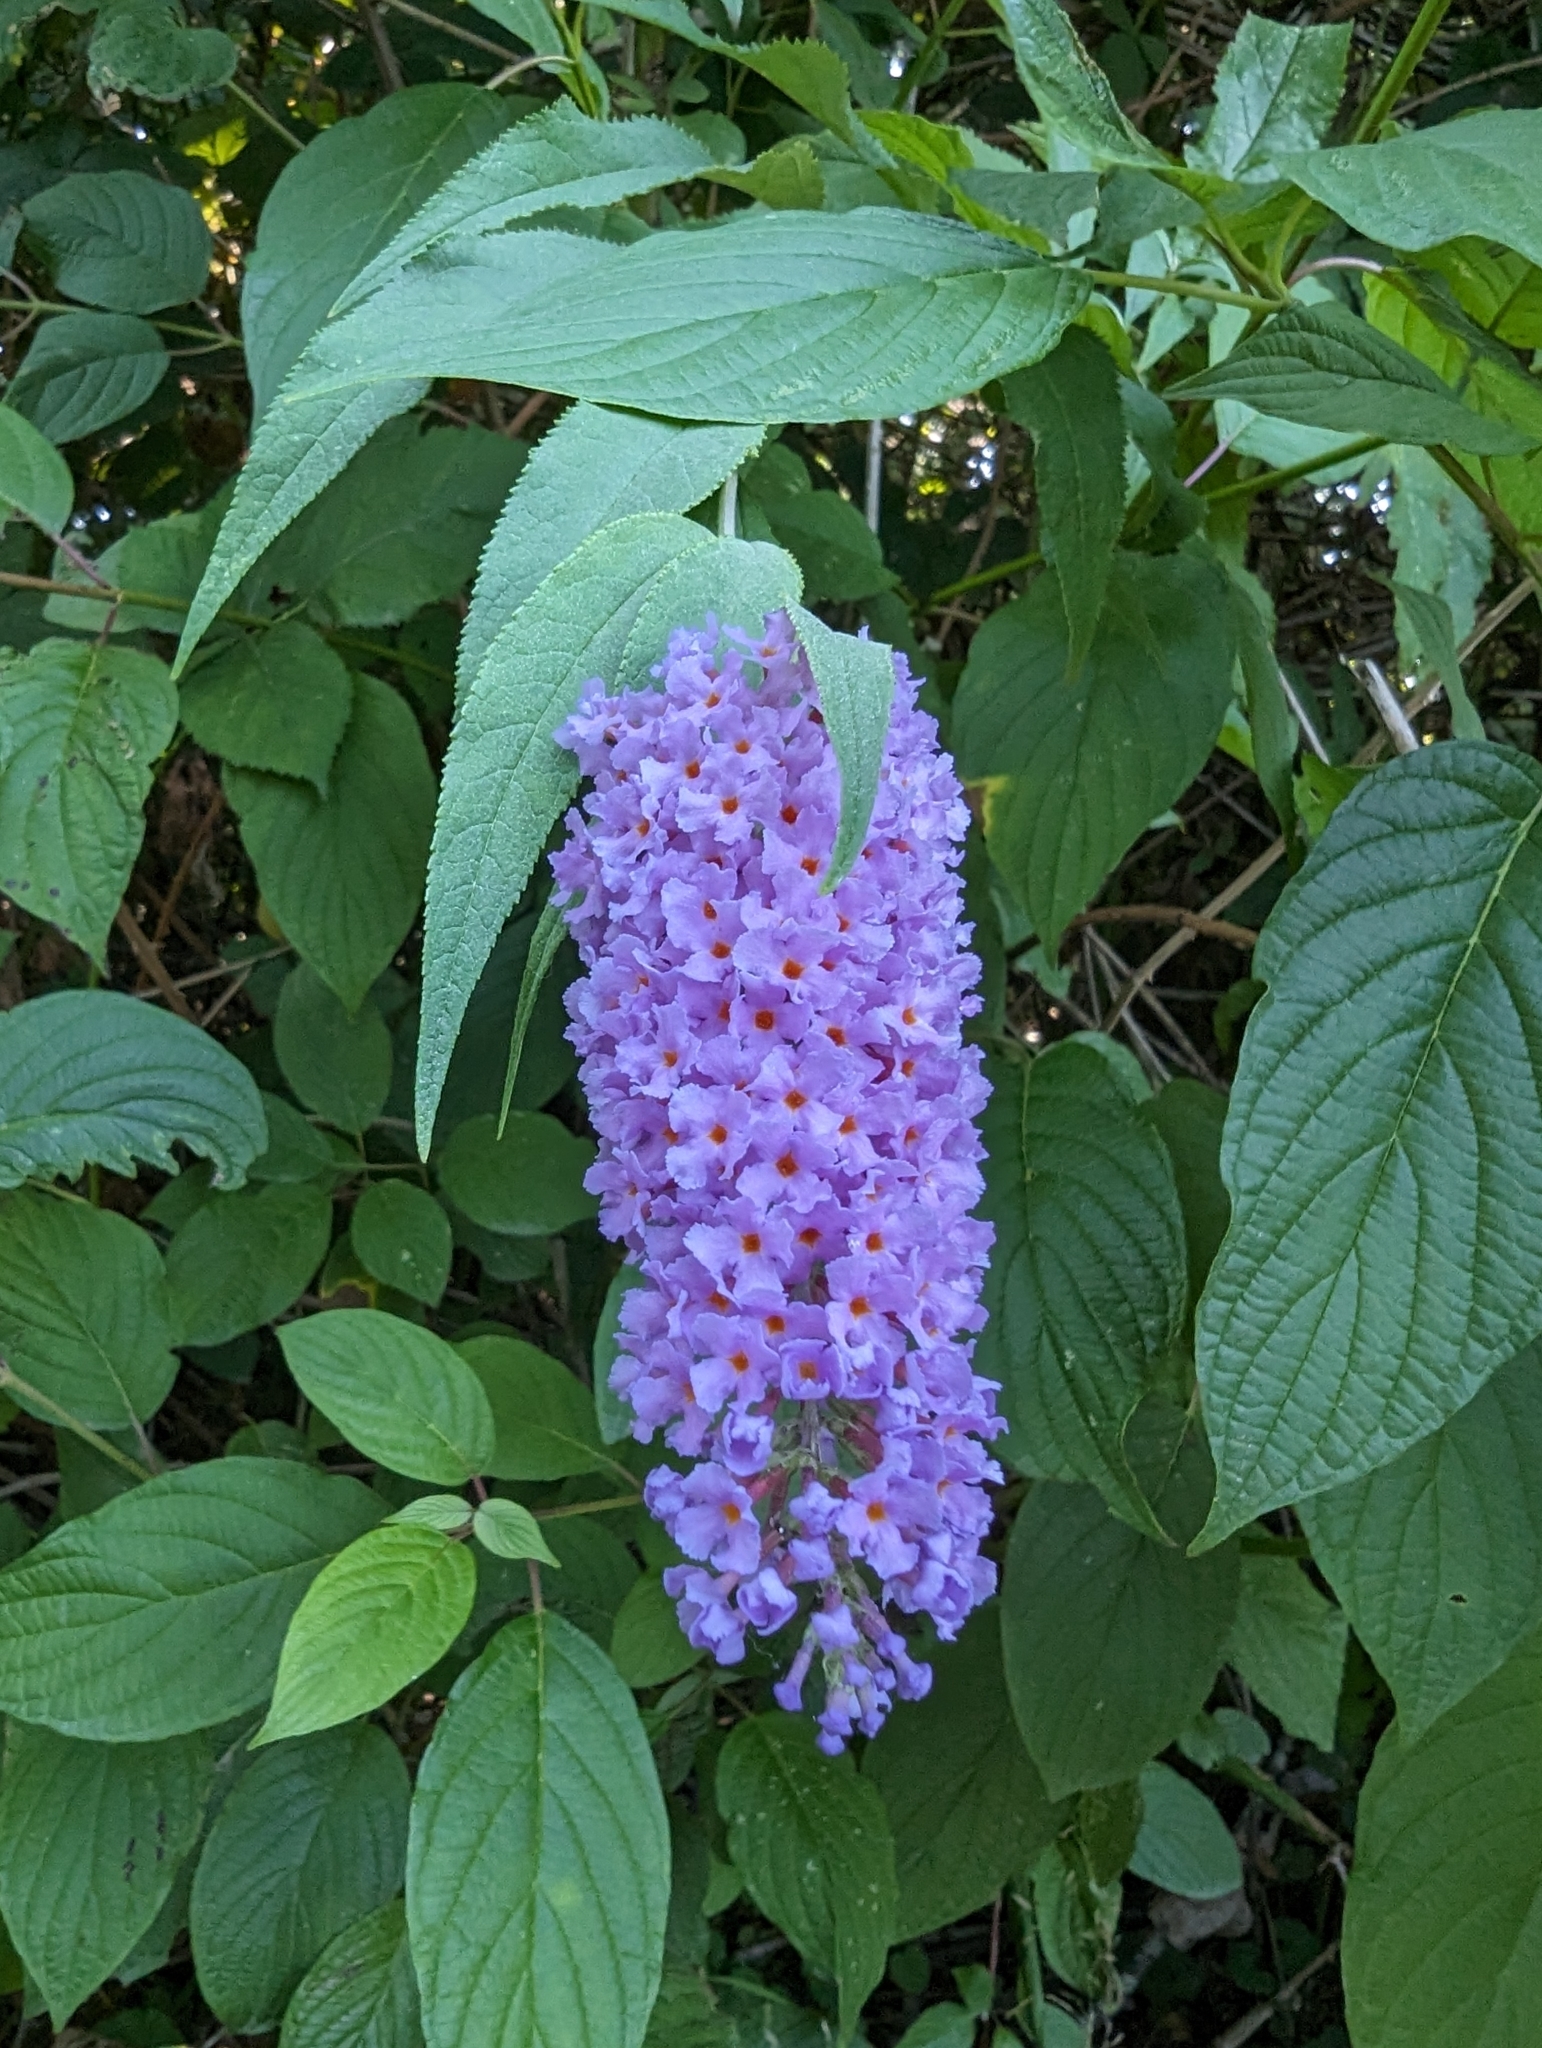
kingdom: Plantae
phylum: Tracheophyta
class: Magnoliopsida
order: Lamiales
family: Scrophulariaceae
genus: Buddleja
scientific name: Buddleja davidii
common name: Butterfly-bush
